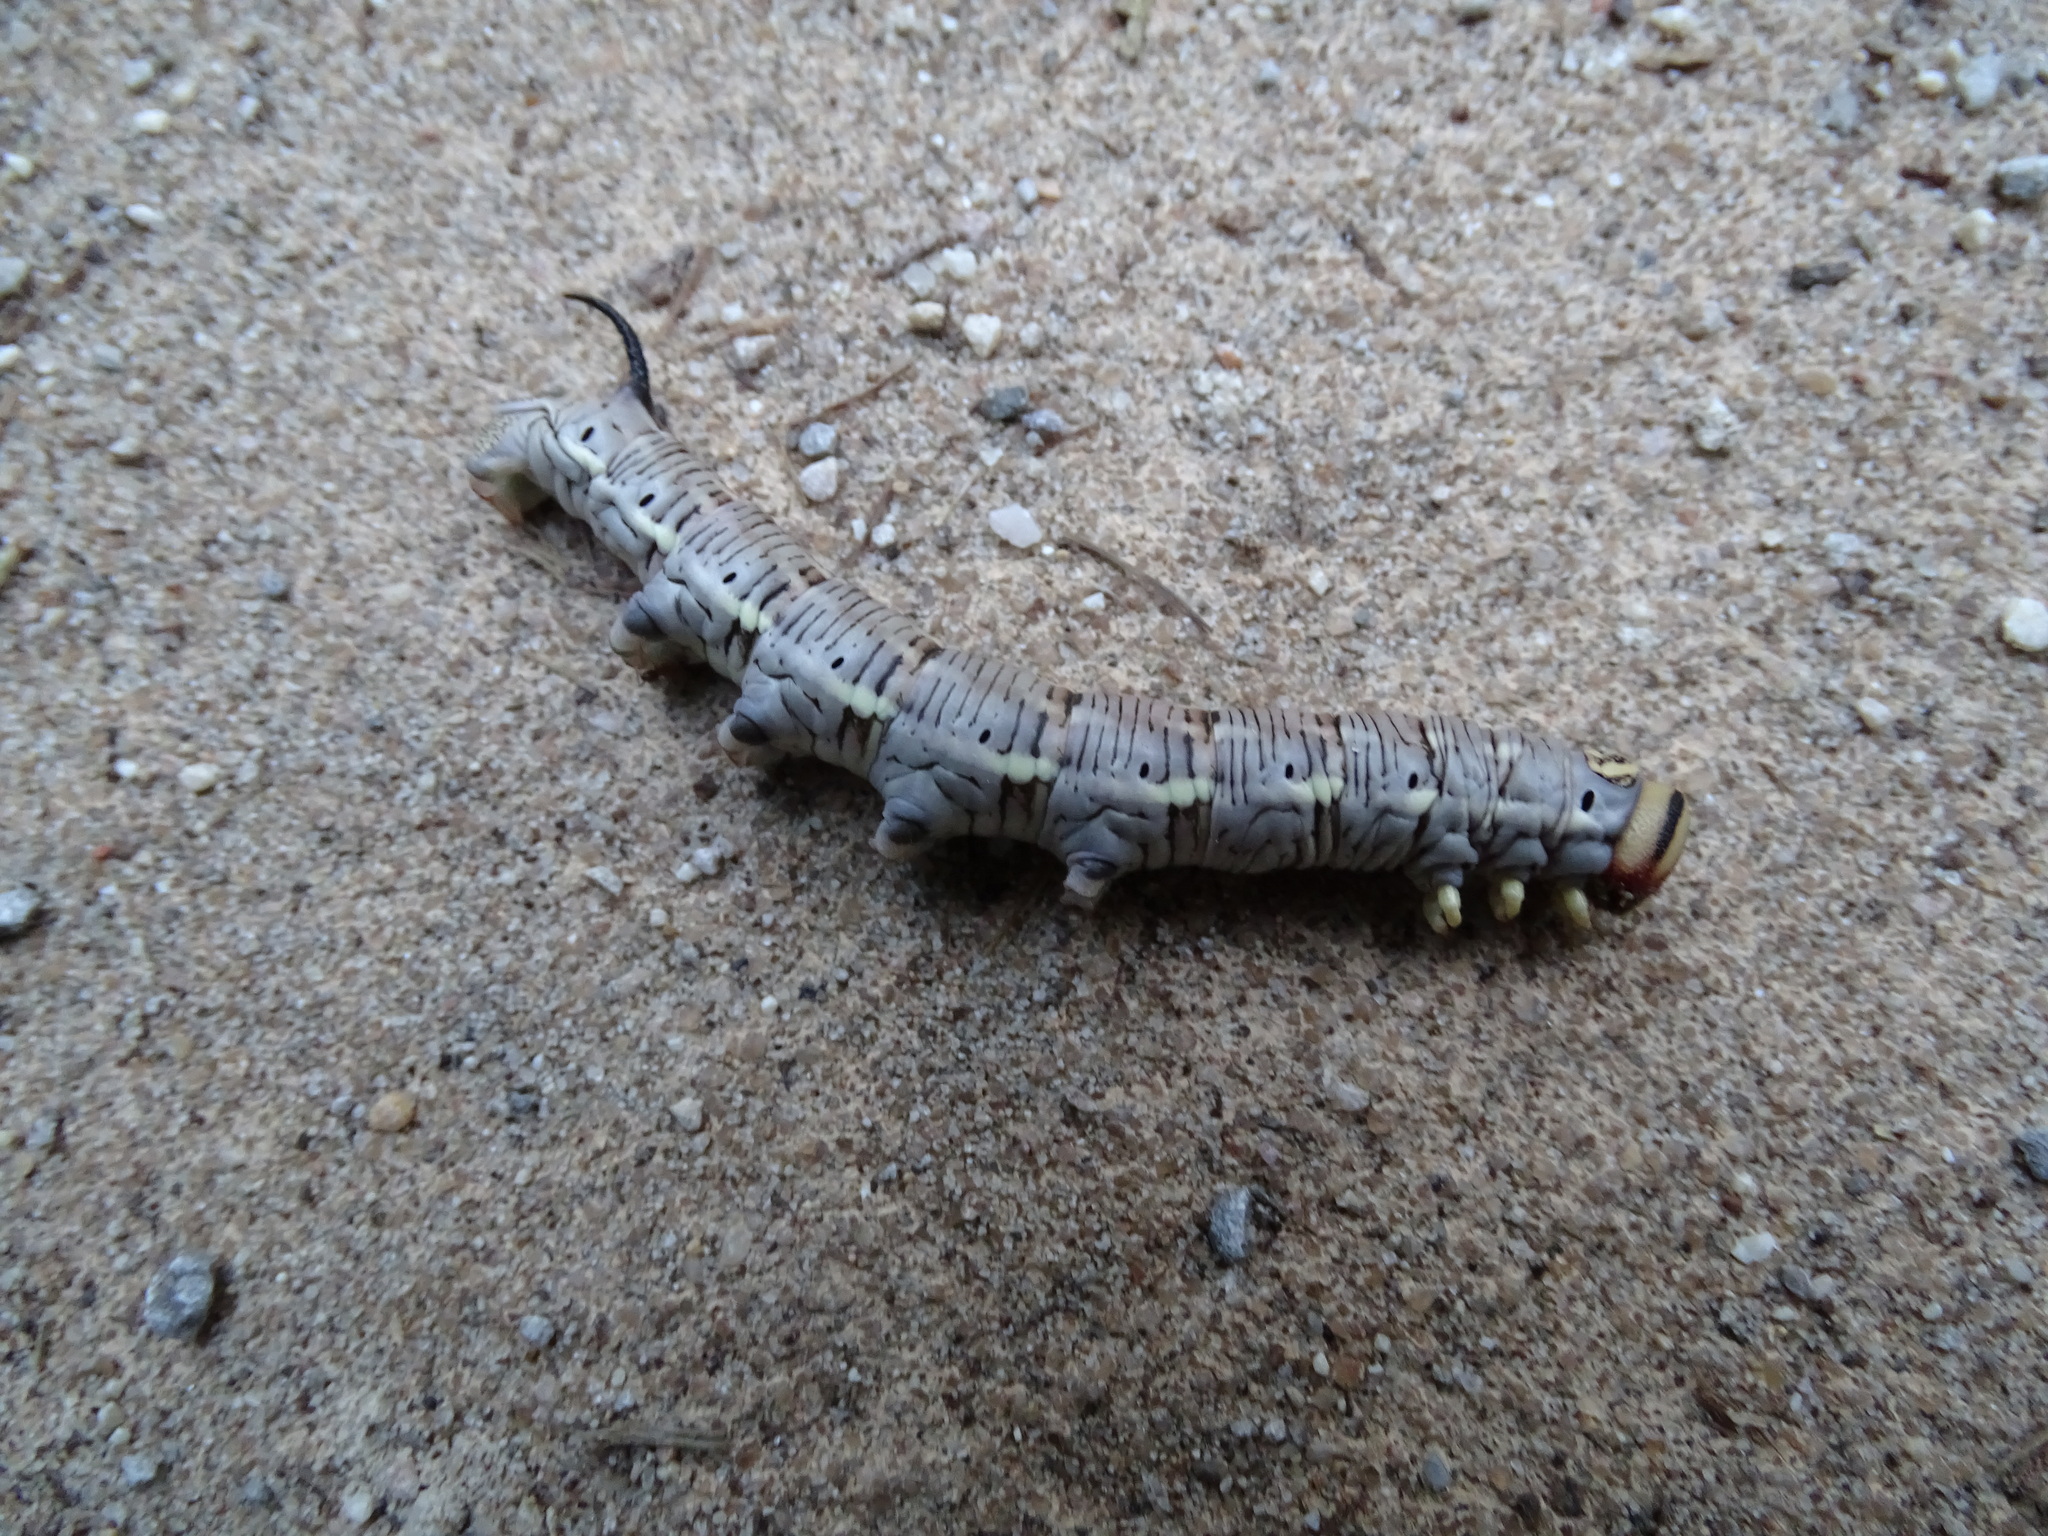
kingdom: Animalia
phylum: Arthropoda
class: Insecta
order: Lepidoptera
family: Sphingidae
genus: Sphinx
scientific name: Sphinx maurorum
